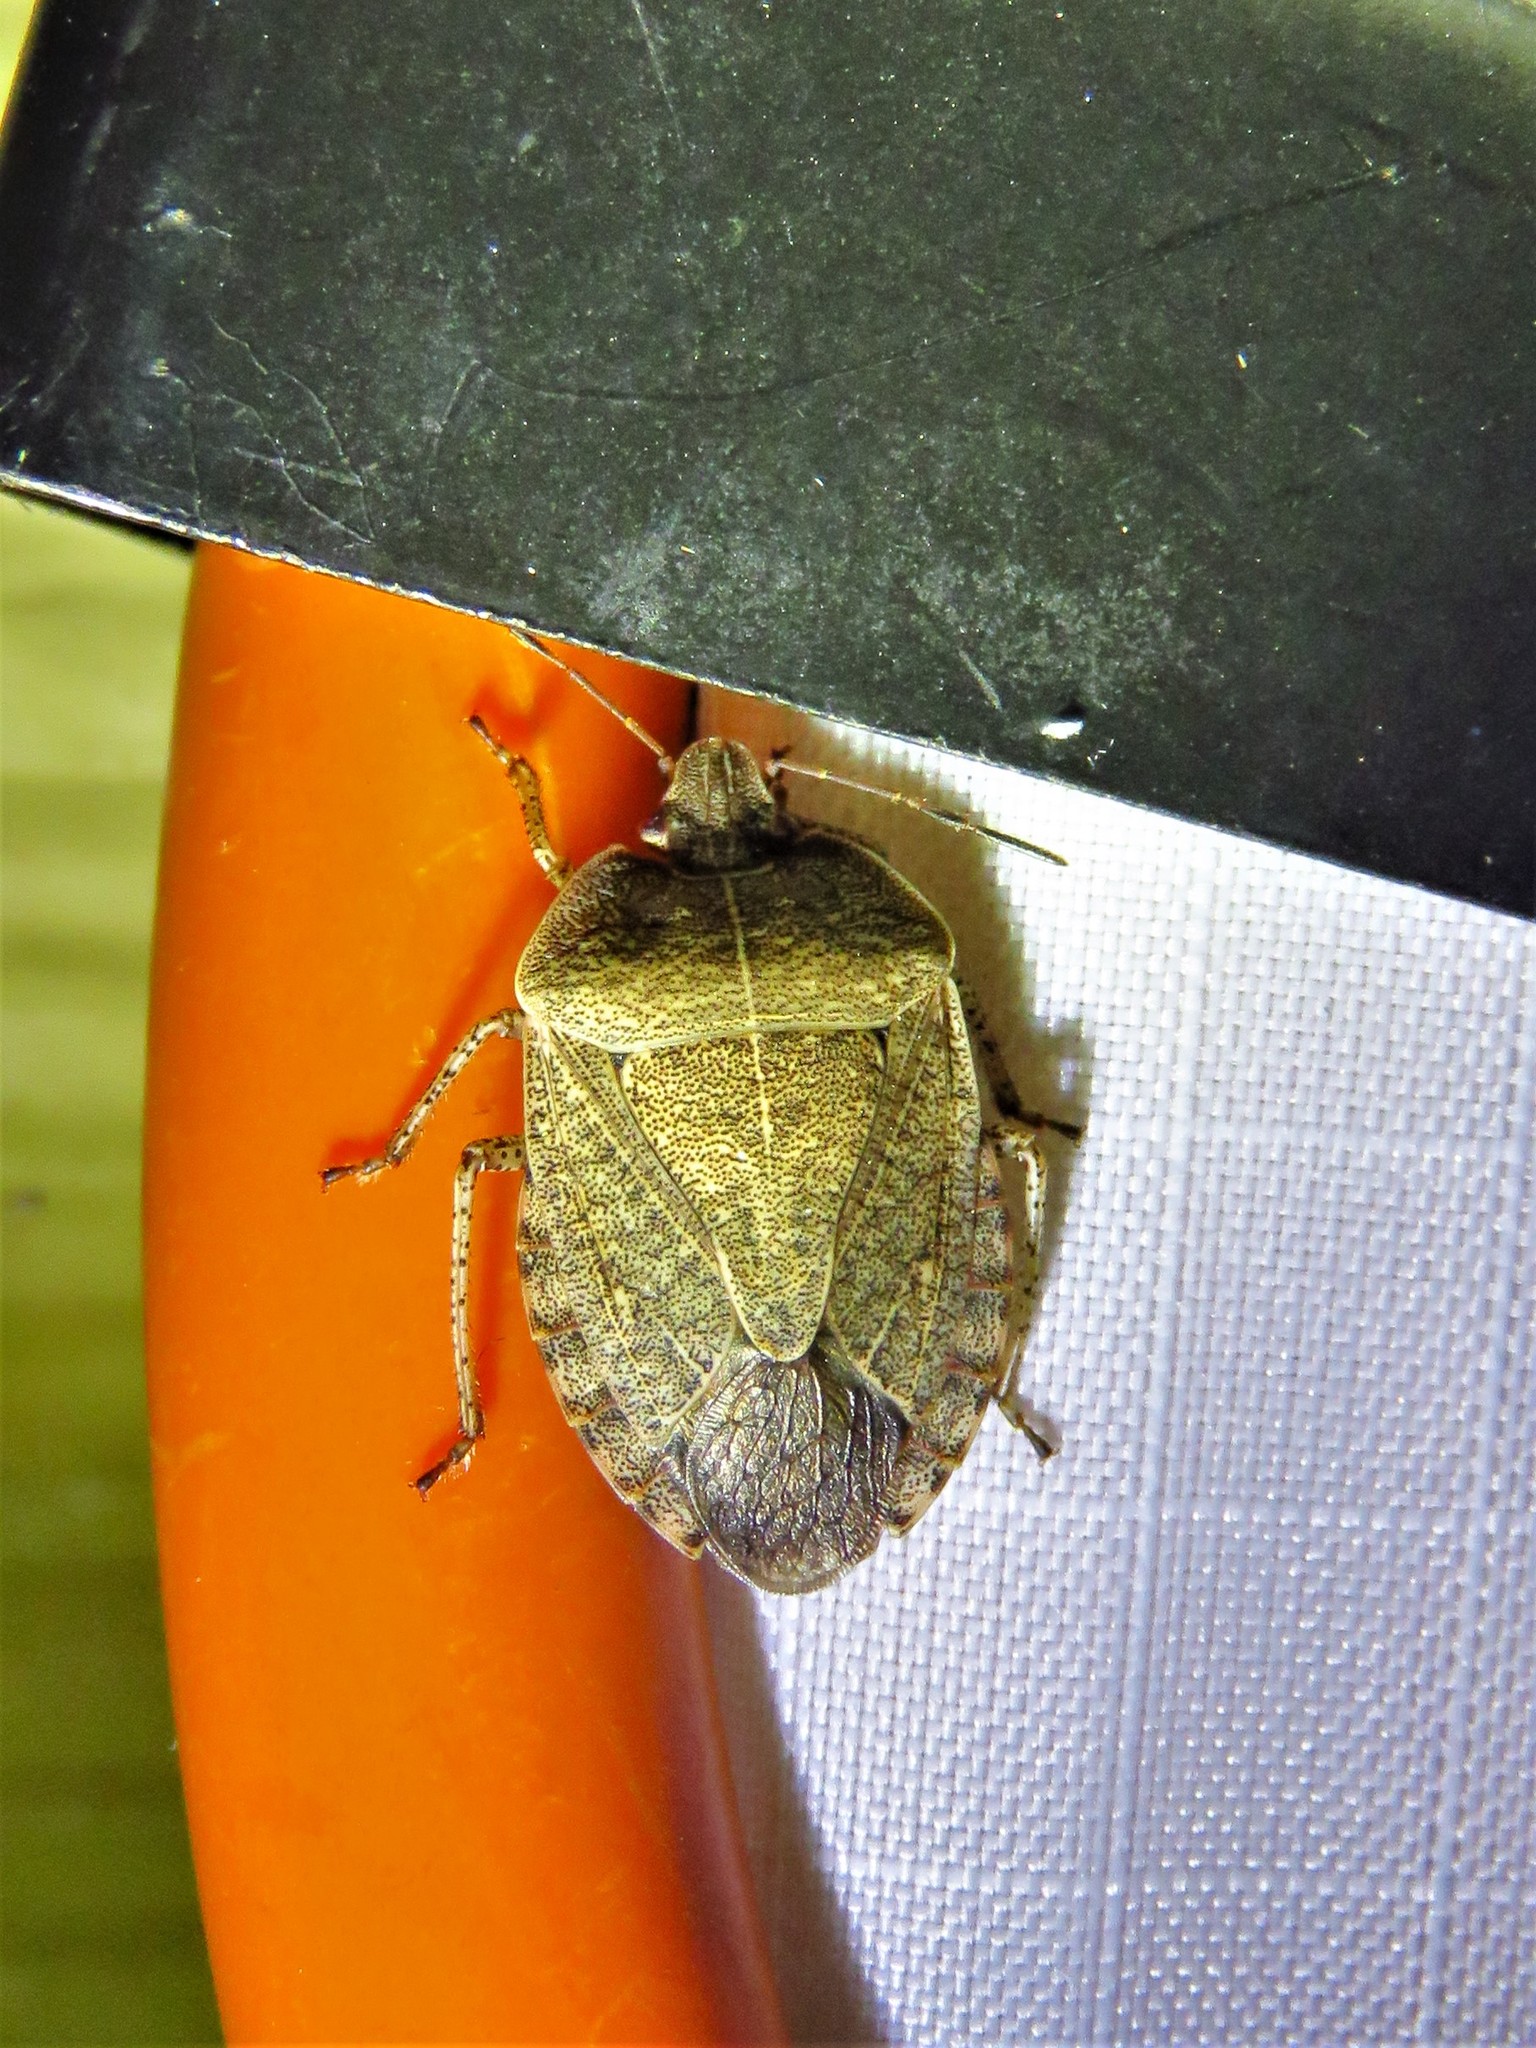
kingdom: Animalia
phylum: Arthropoda
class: Insecta
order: Hemiptera
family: Pentatomidae
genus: Menecles
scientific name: Menecles insertus
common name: Elf shoe stink bug
